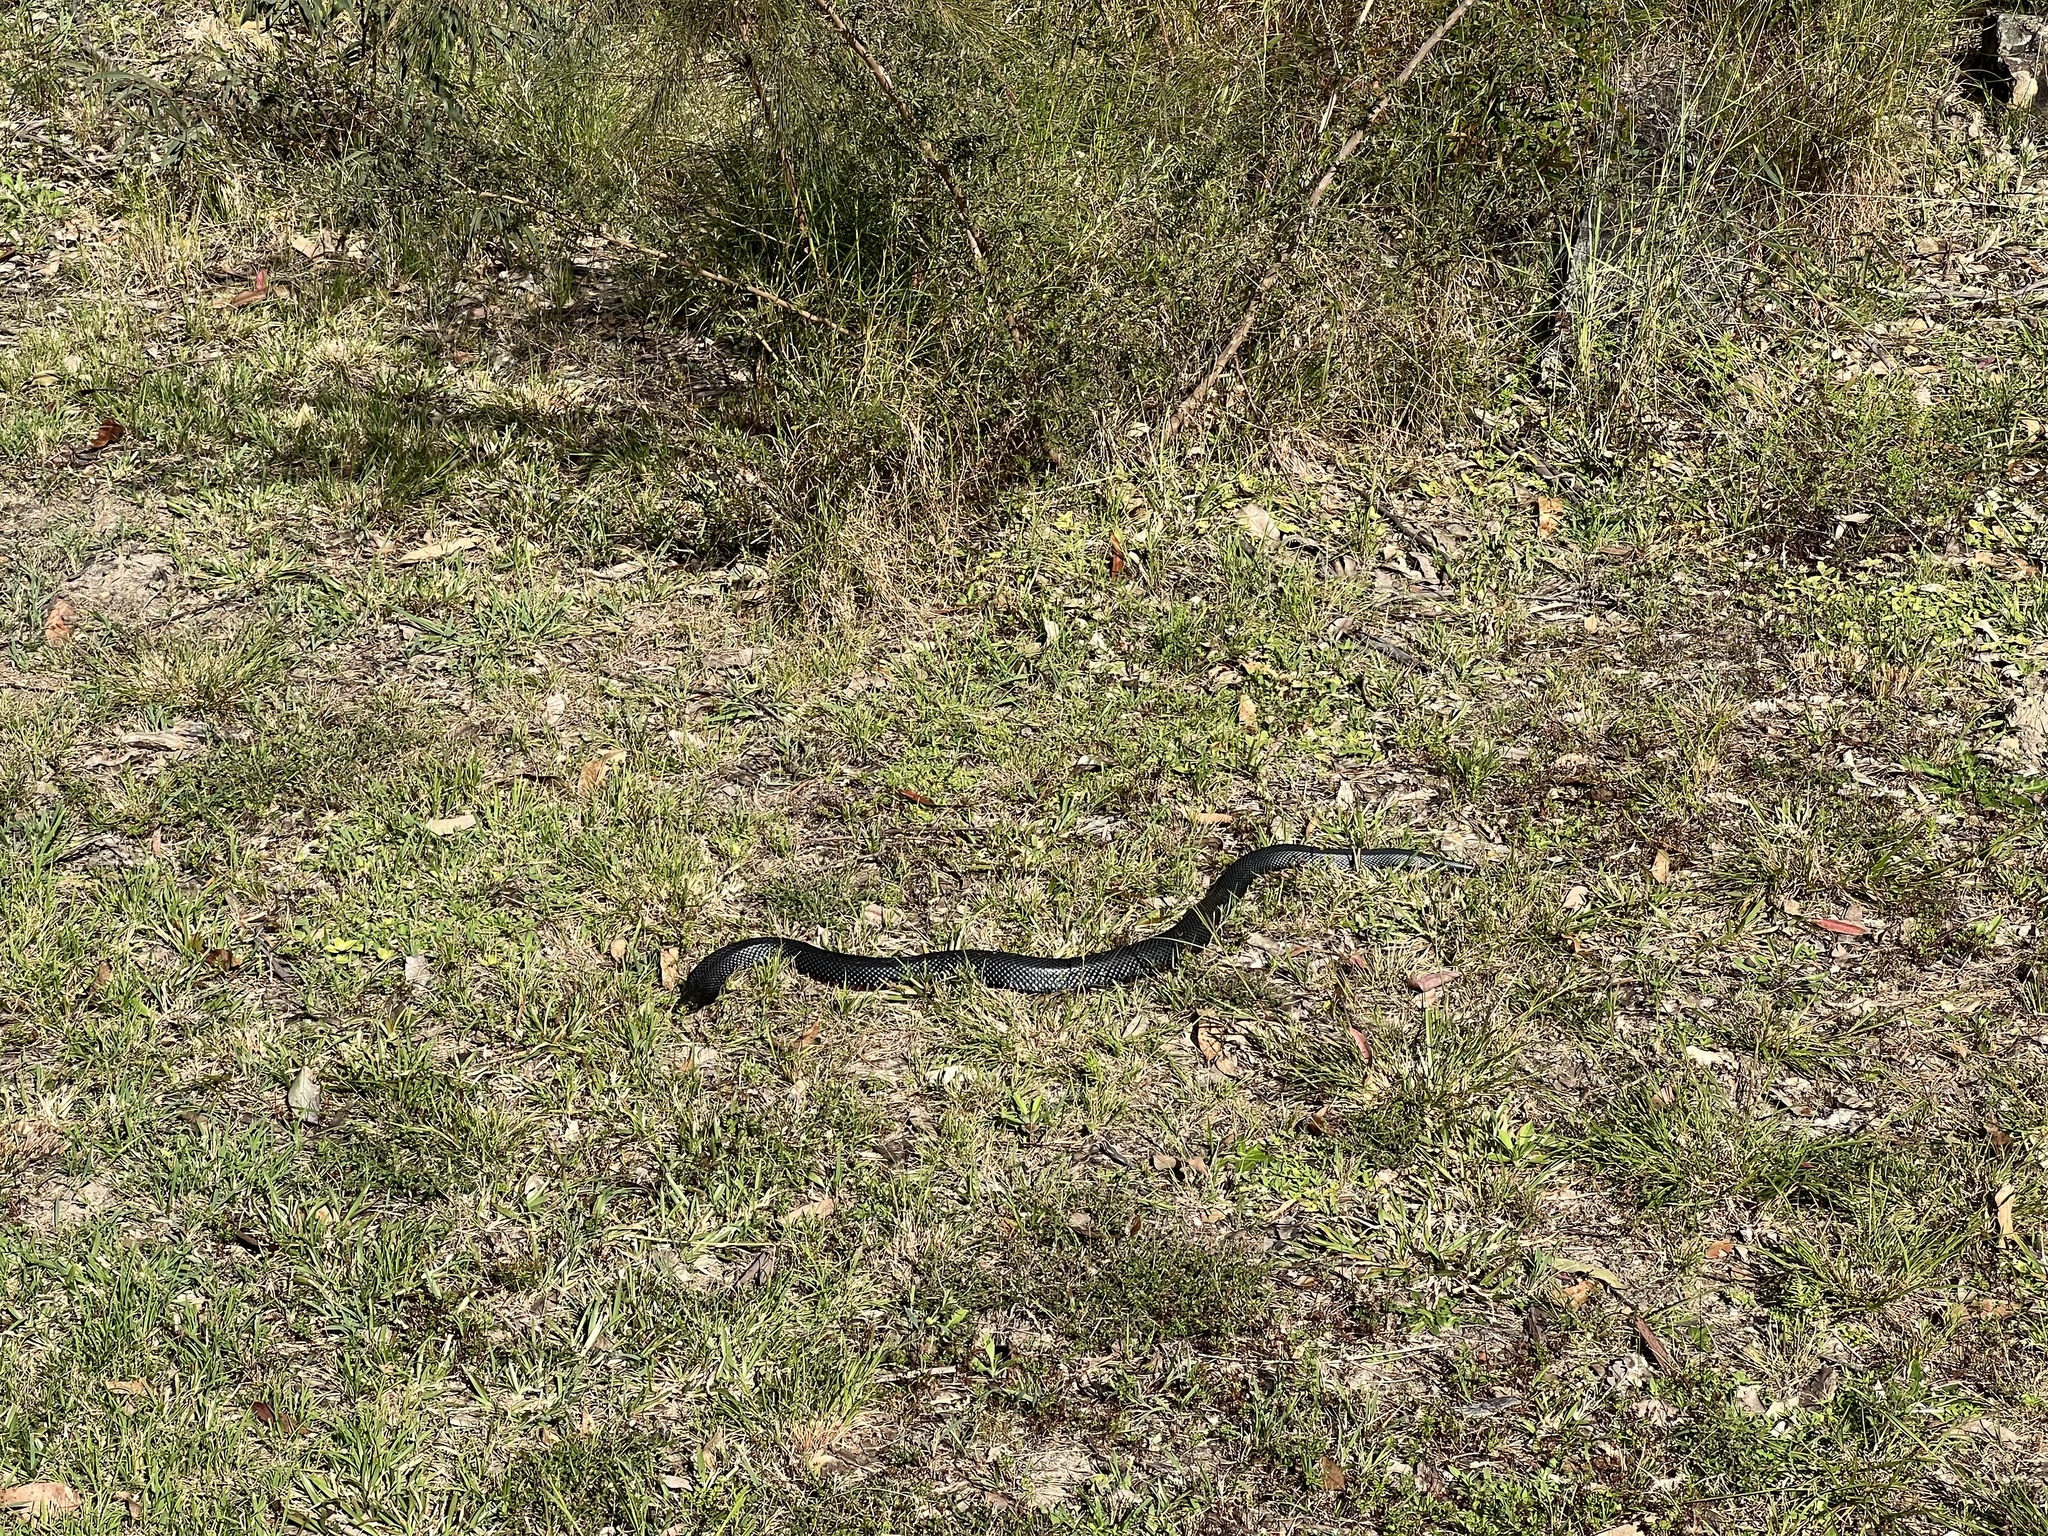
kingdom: Animalia
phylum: Chordata
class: Squamata
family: Elapidae
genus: Pseudechis
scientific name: Pseudechis porphyriacus
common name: Australian black snake
